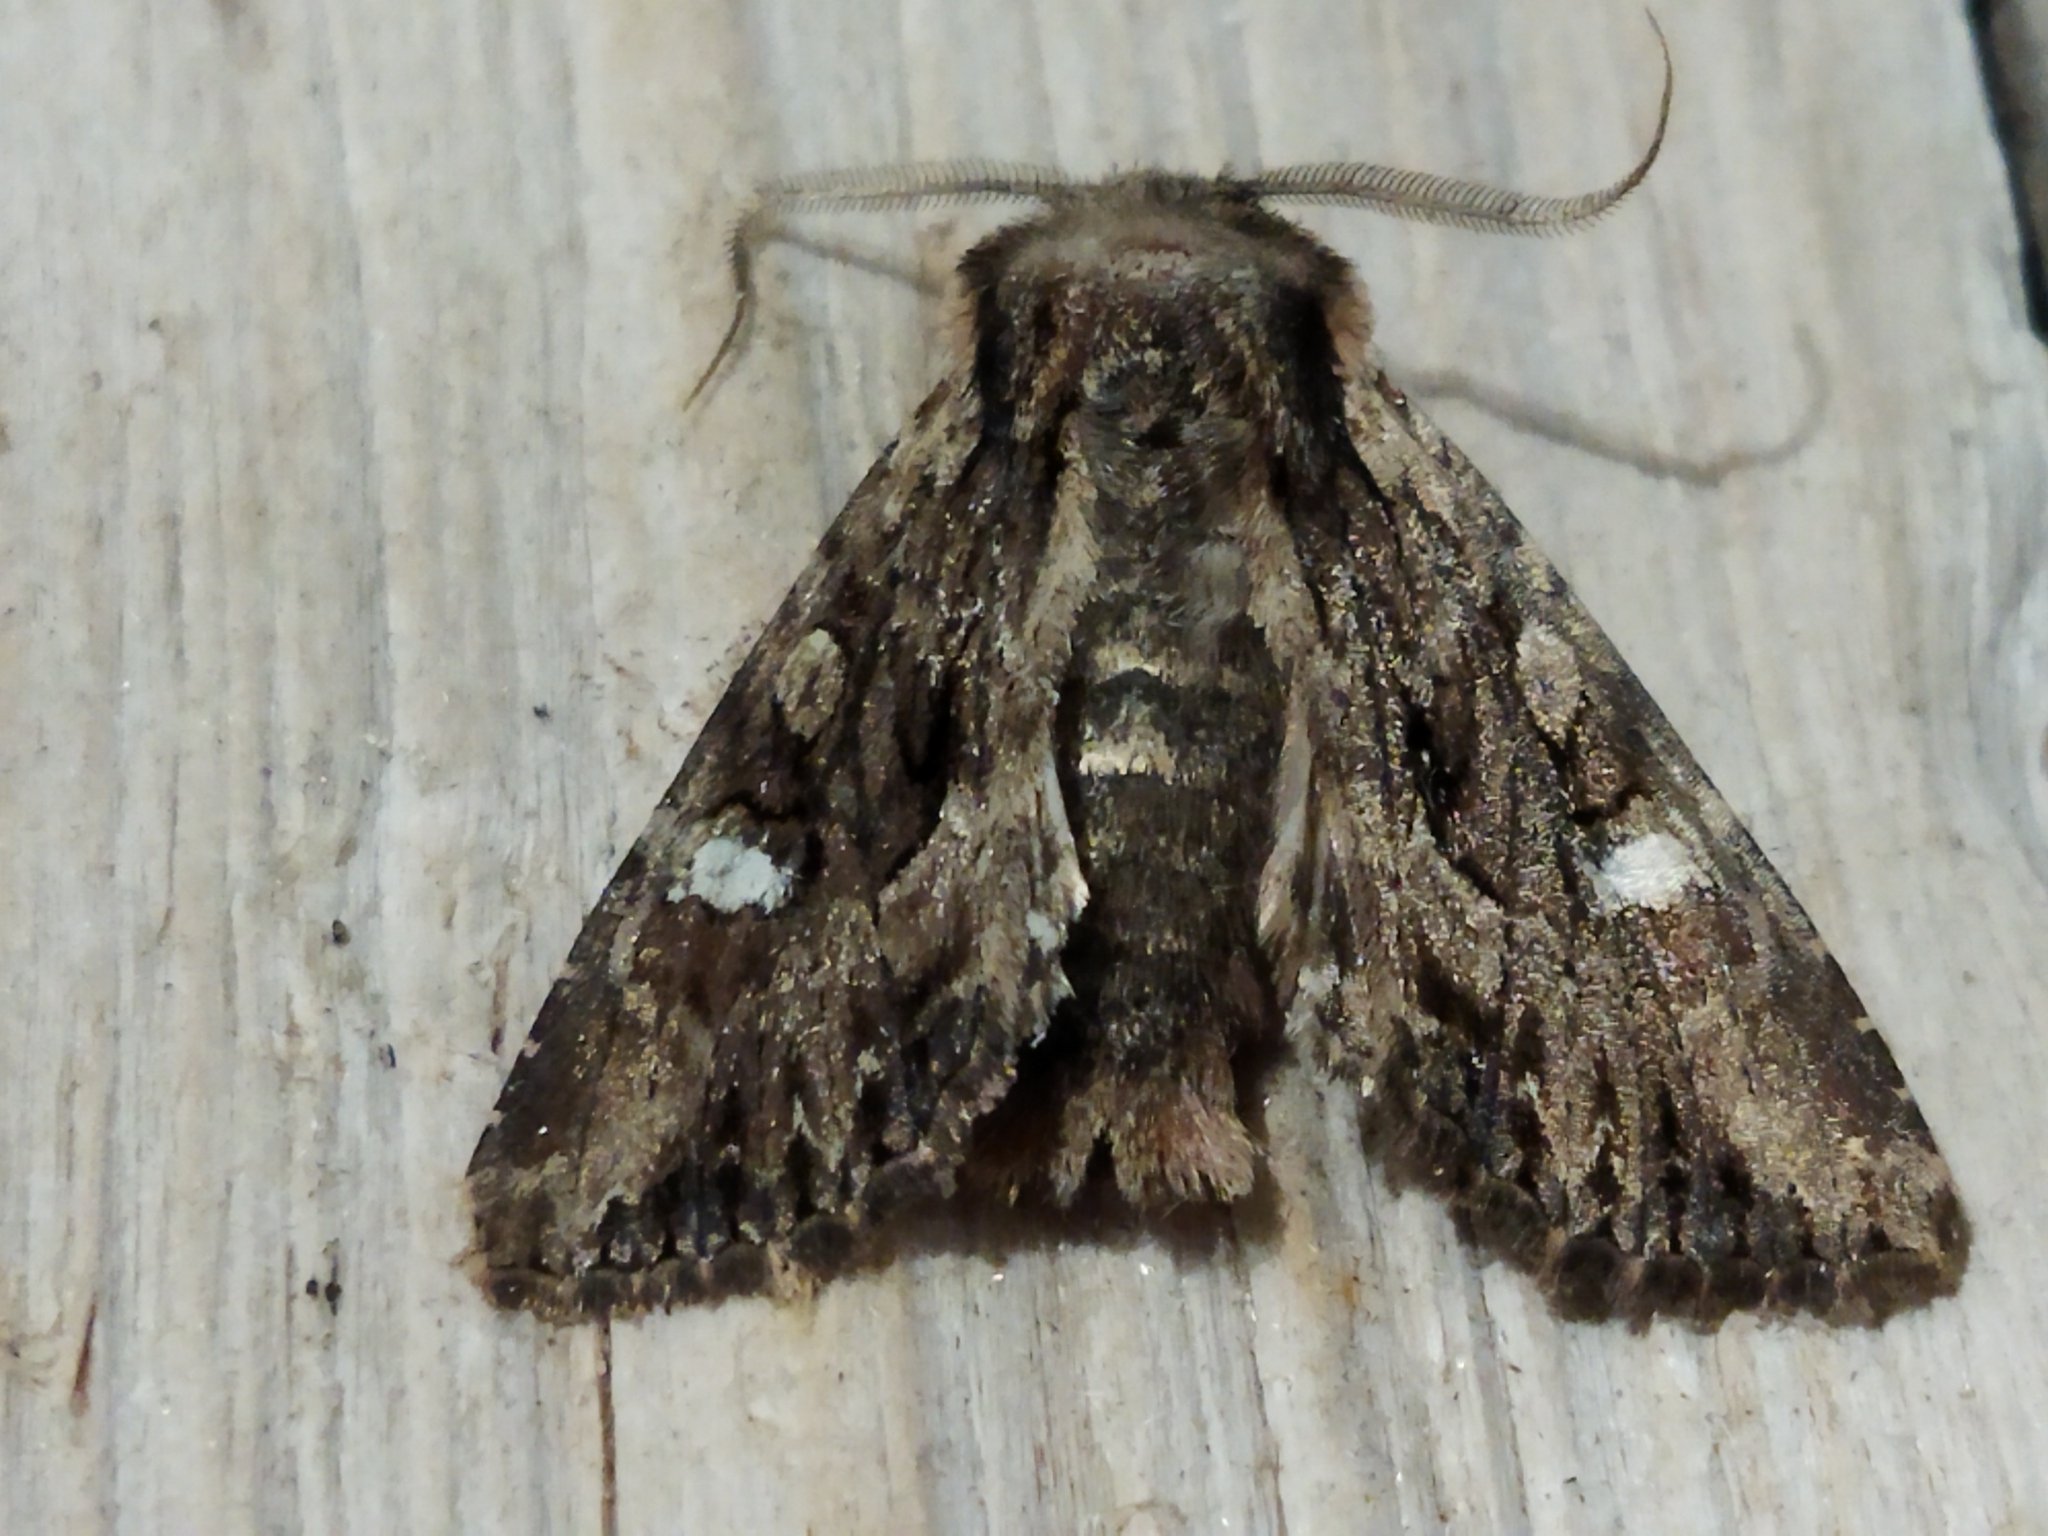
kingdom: Animalia
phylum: Arthropoda
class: Insecta
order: Lepidoptera
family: Noctuidae
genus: Polymixis
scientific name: Polymixis trisignata
